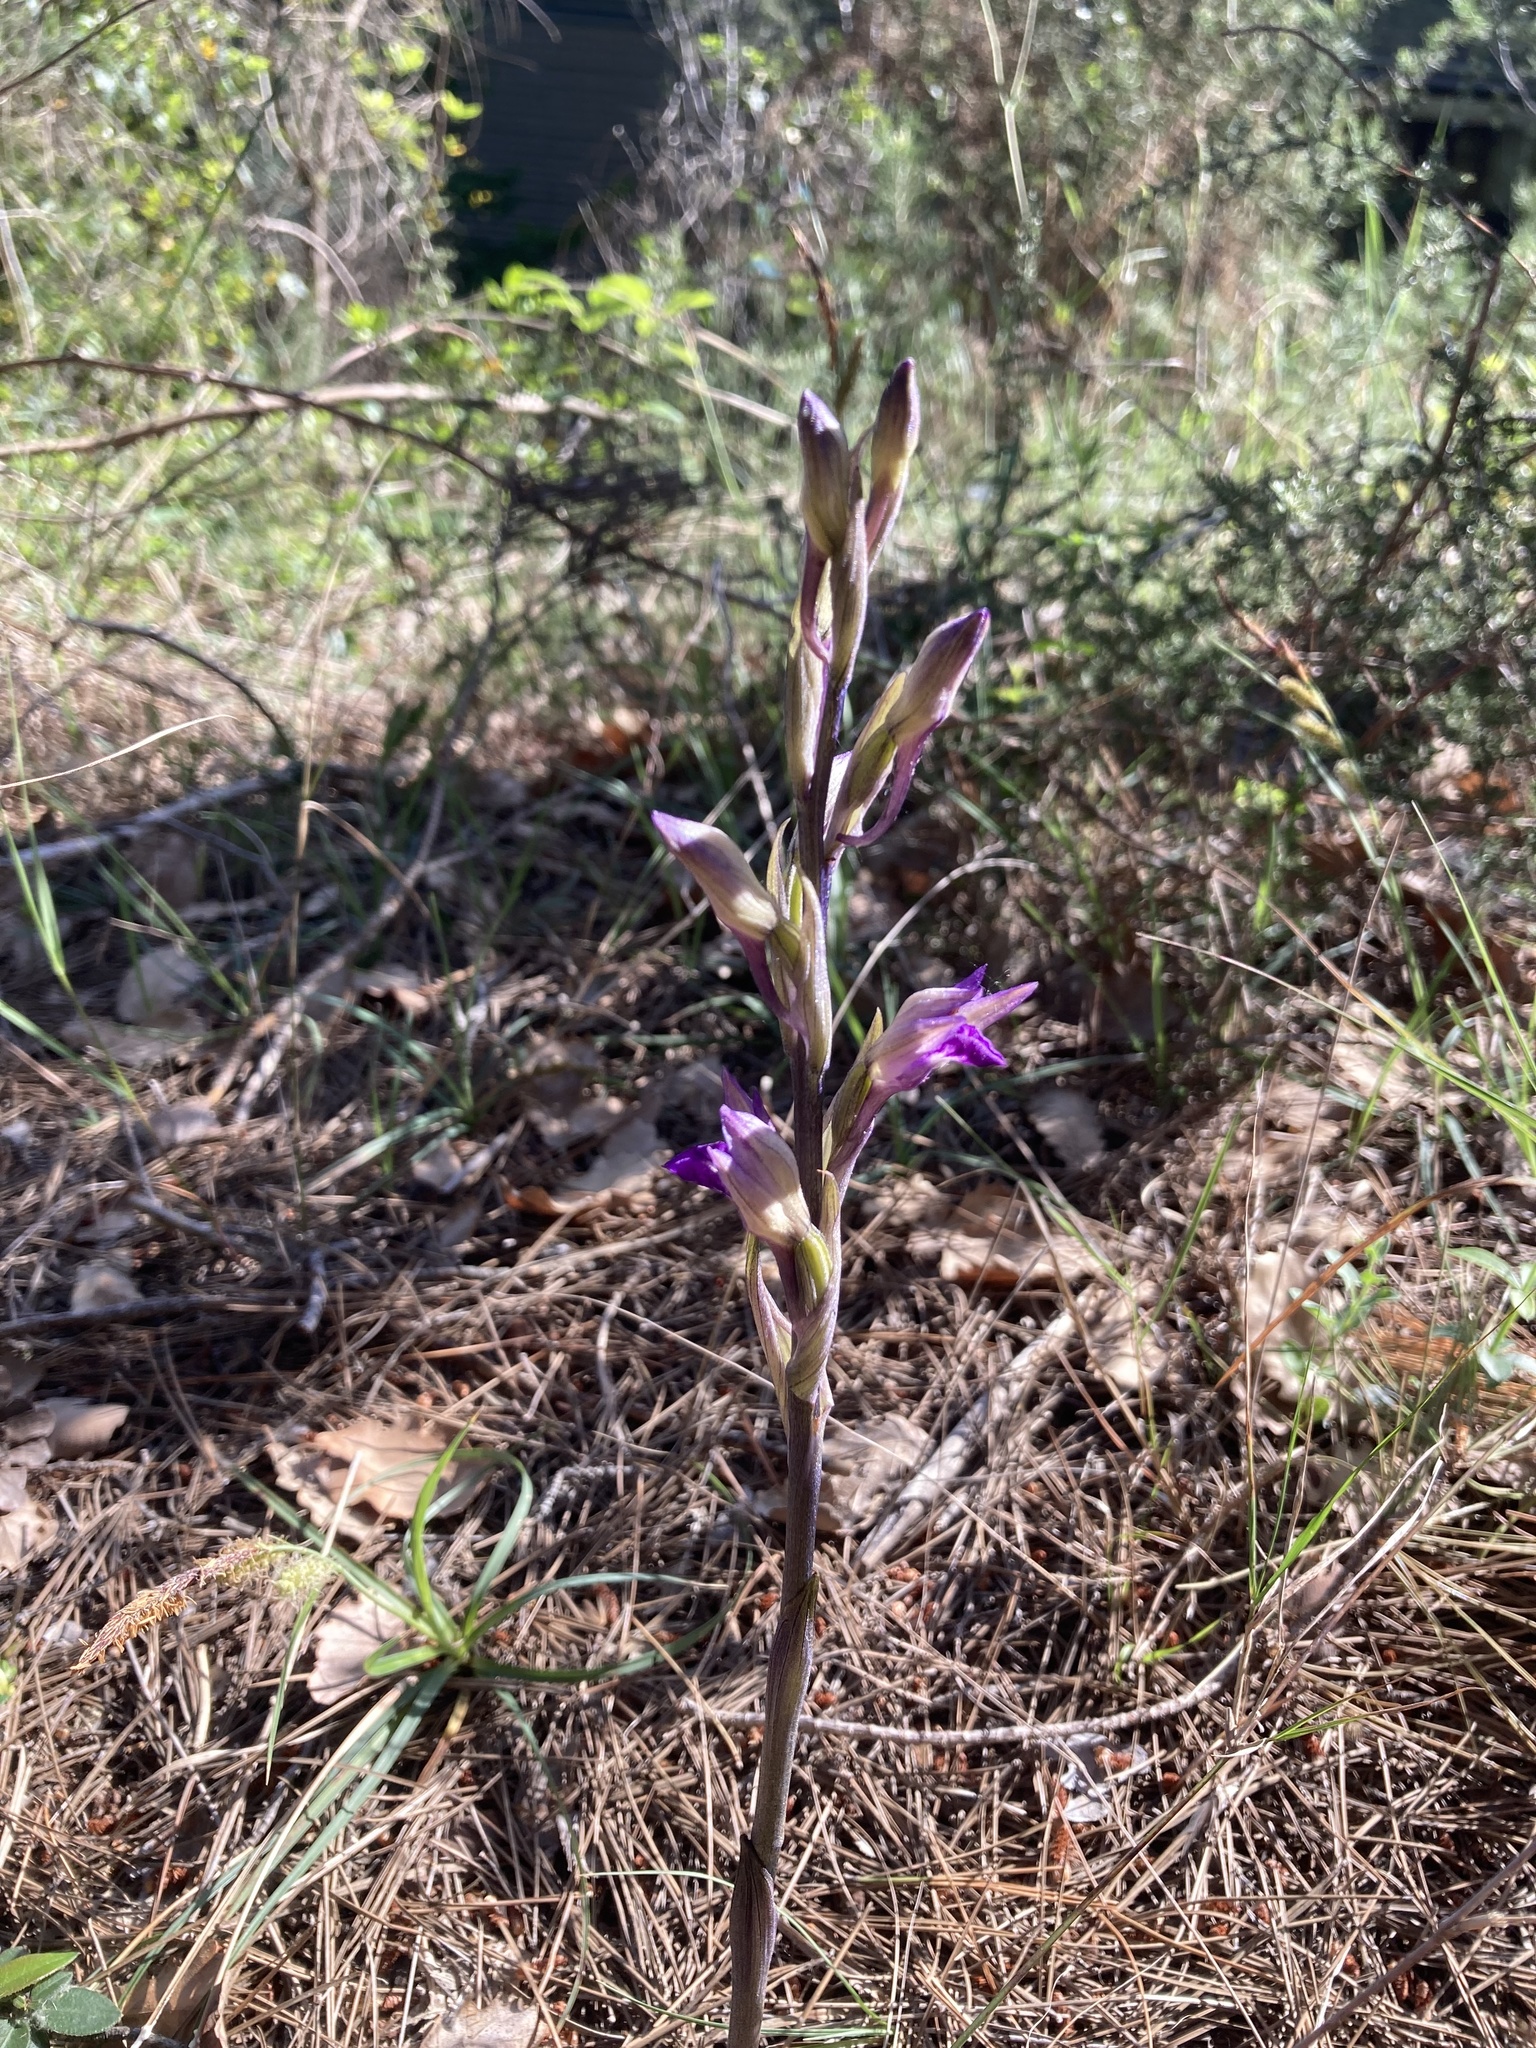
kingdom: Plantae
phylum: Tracheophyta
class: Liliopsida
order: Asparagales
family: Orchidaceae
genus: Limodorum
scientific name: Limodorum abortivum
